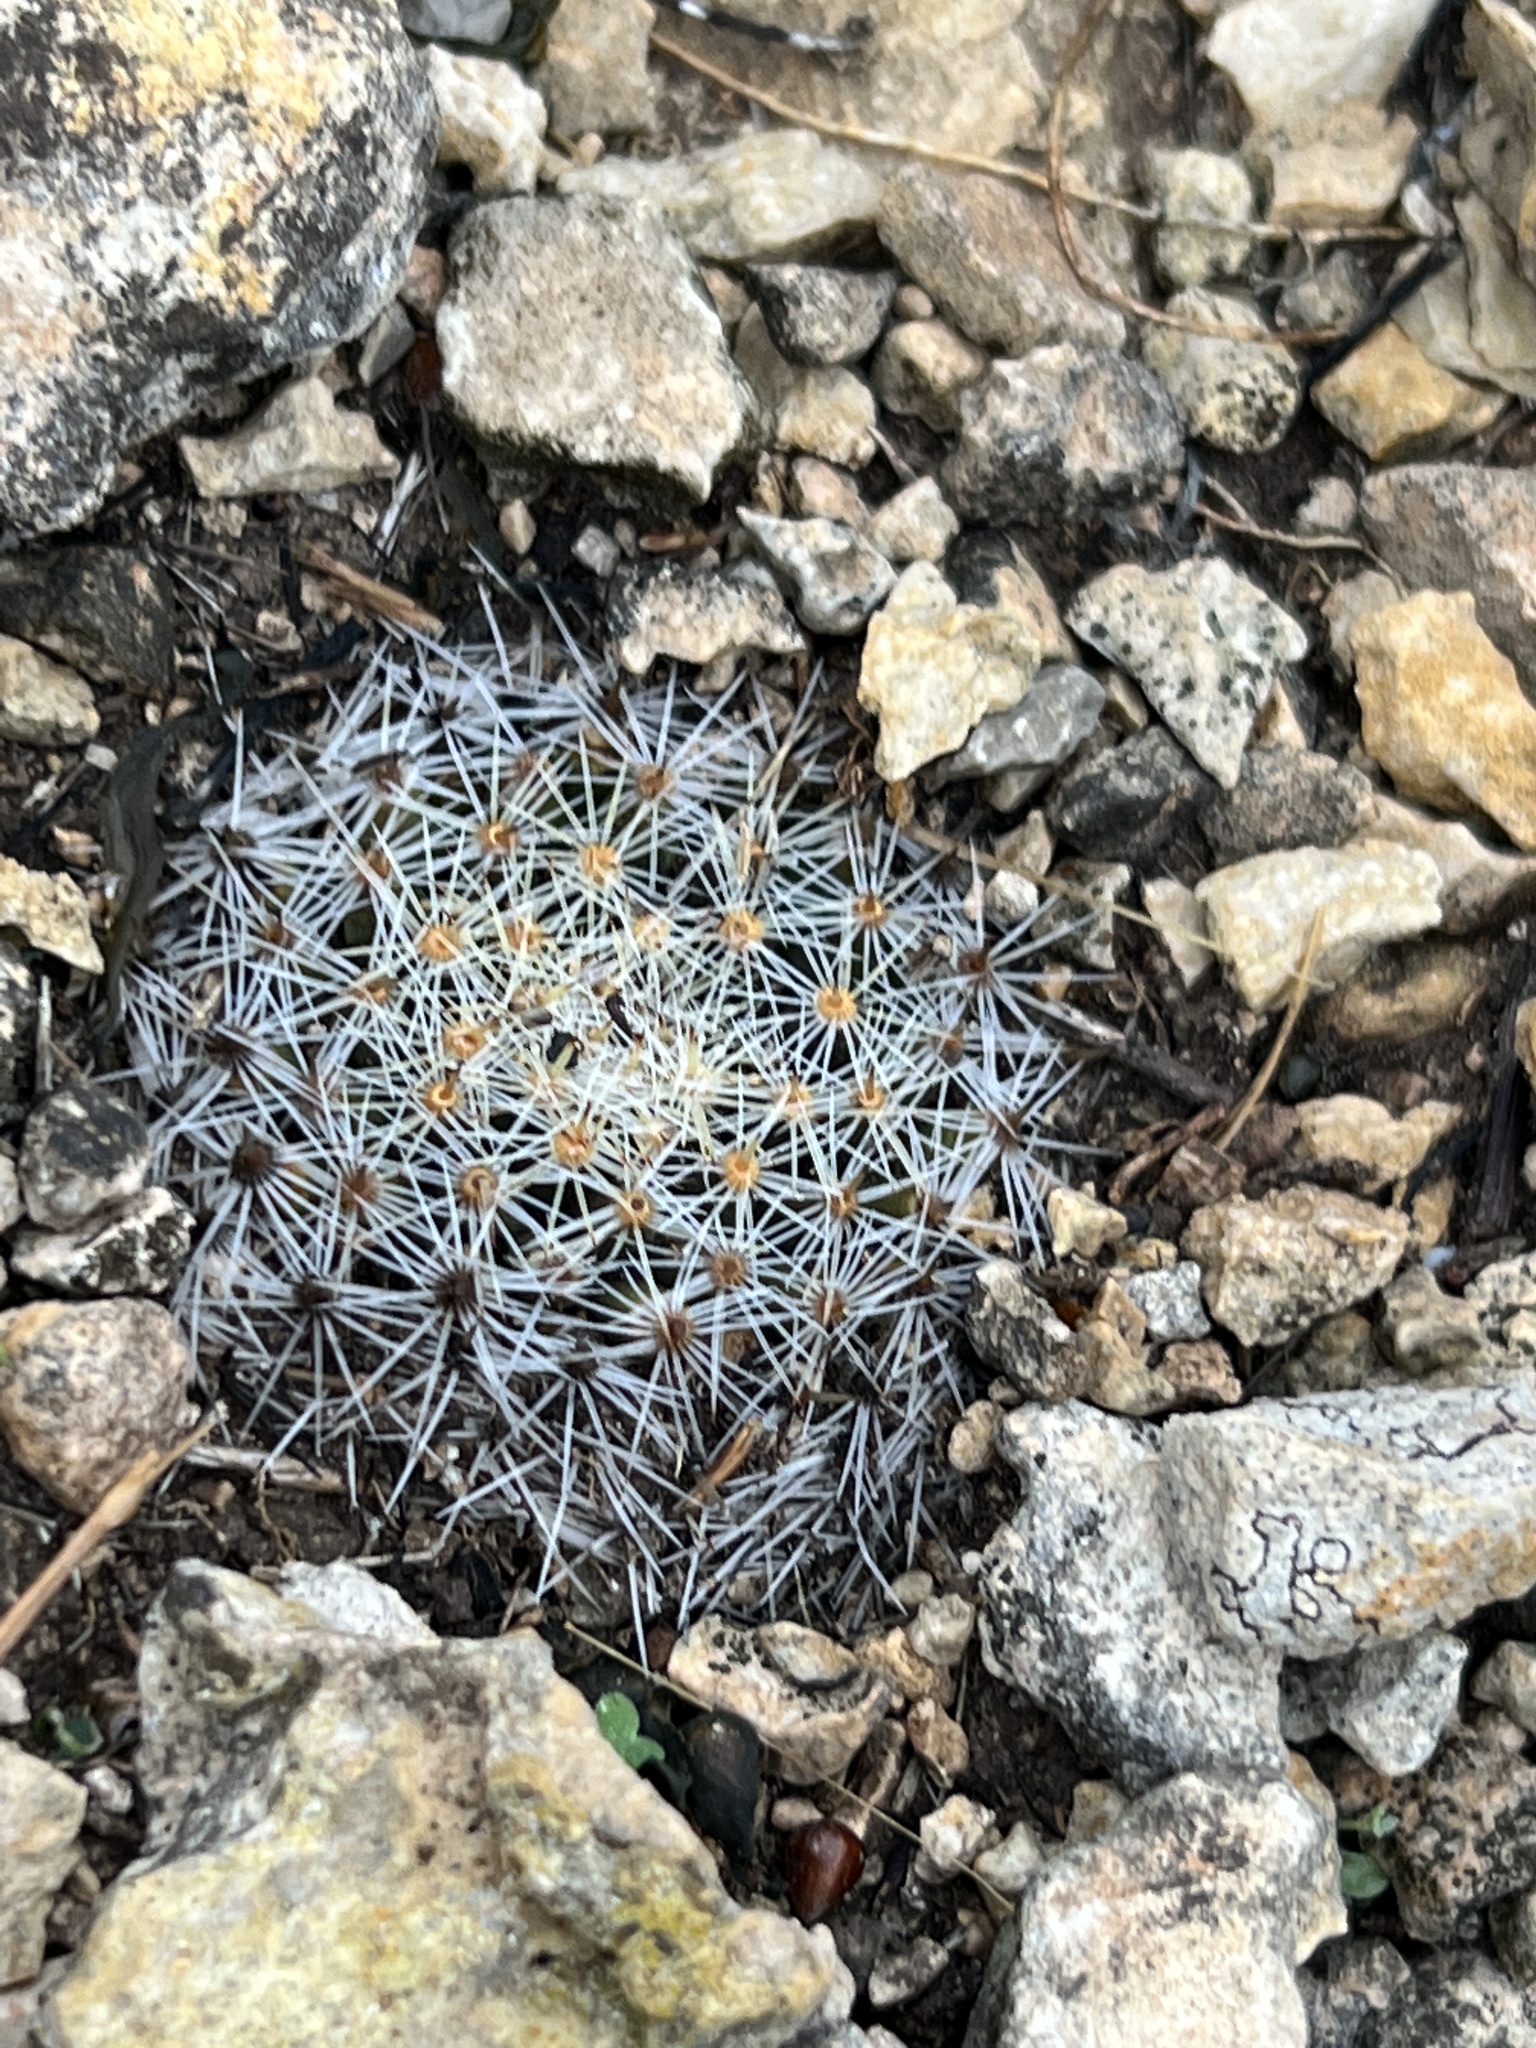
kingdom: Plantae
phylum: Tracheophyta
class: Magnoliopsida
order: Caryophyllales
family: Cactaceae
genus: Mammillaria
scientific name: Mammillaria heyderi
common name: Little nipple cactus
